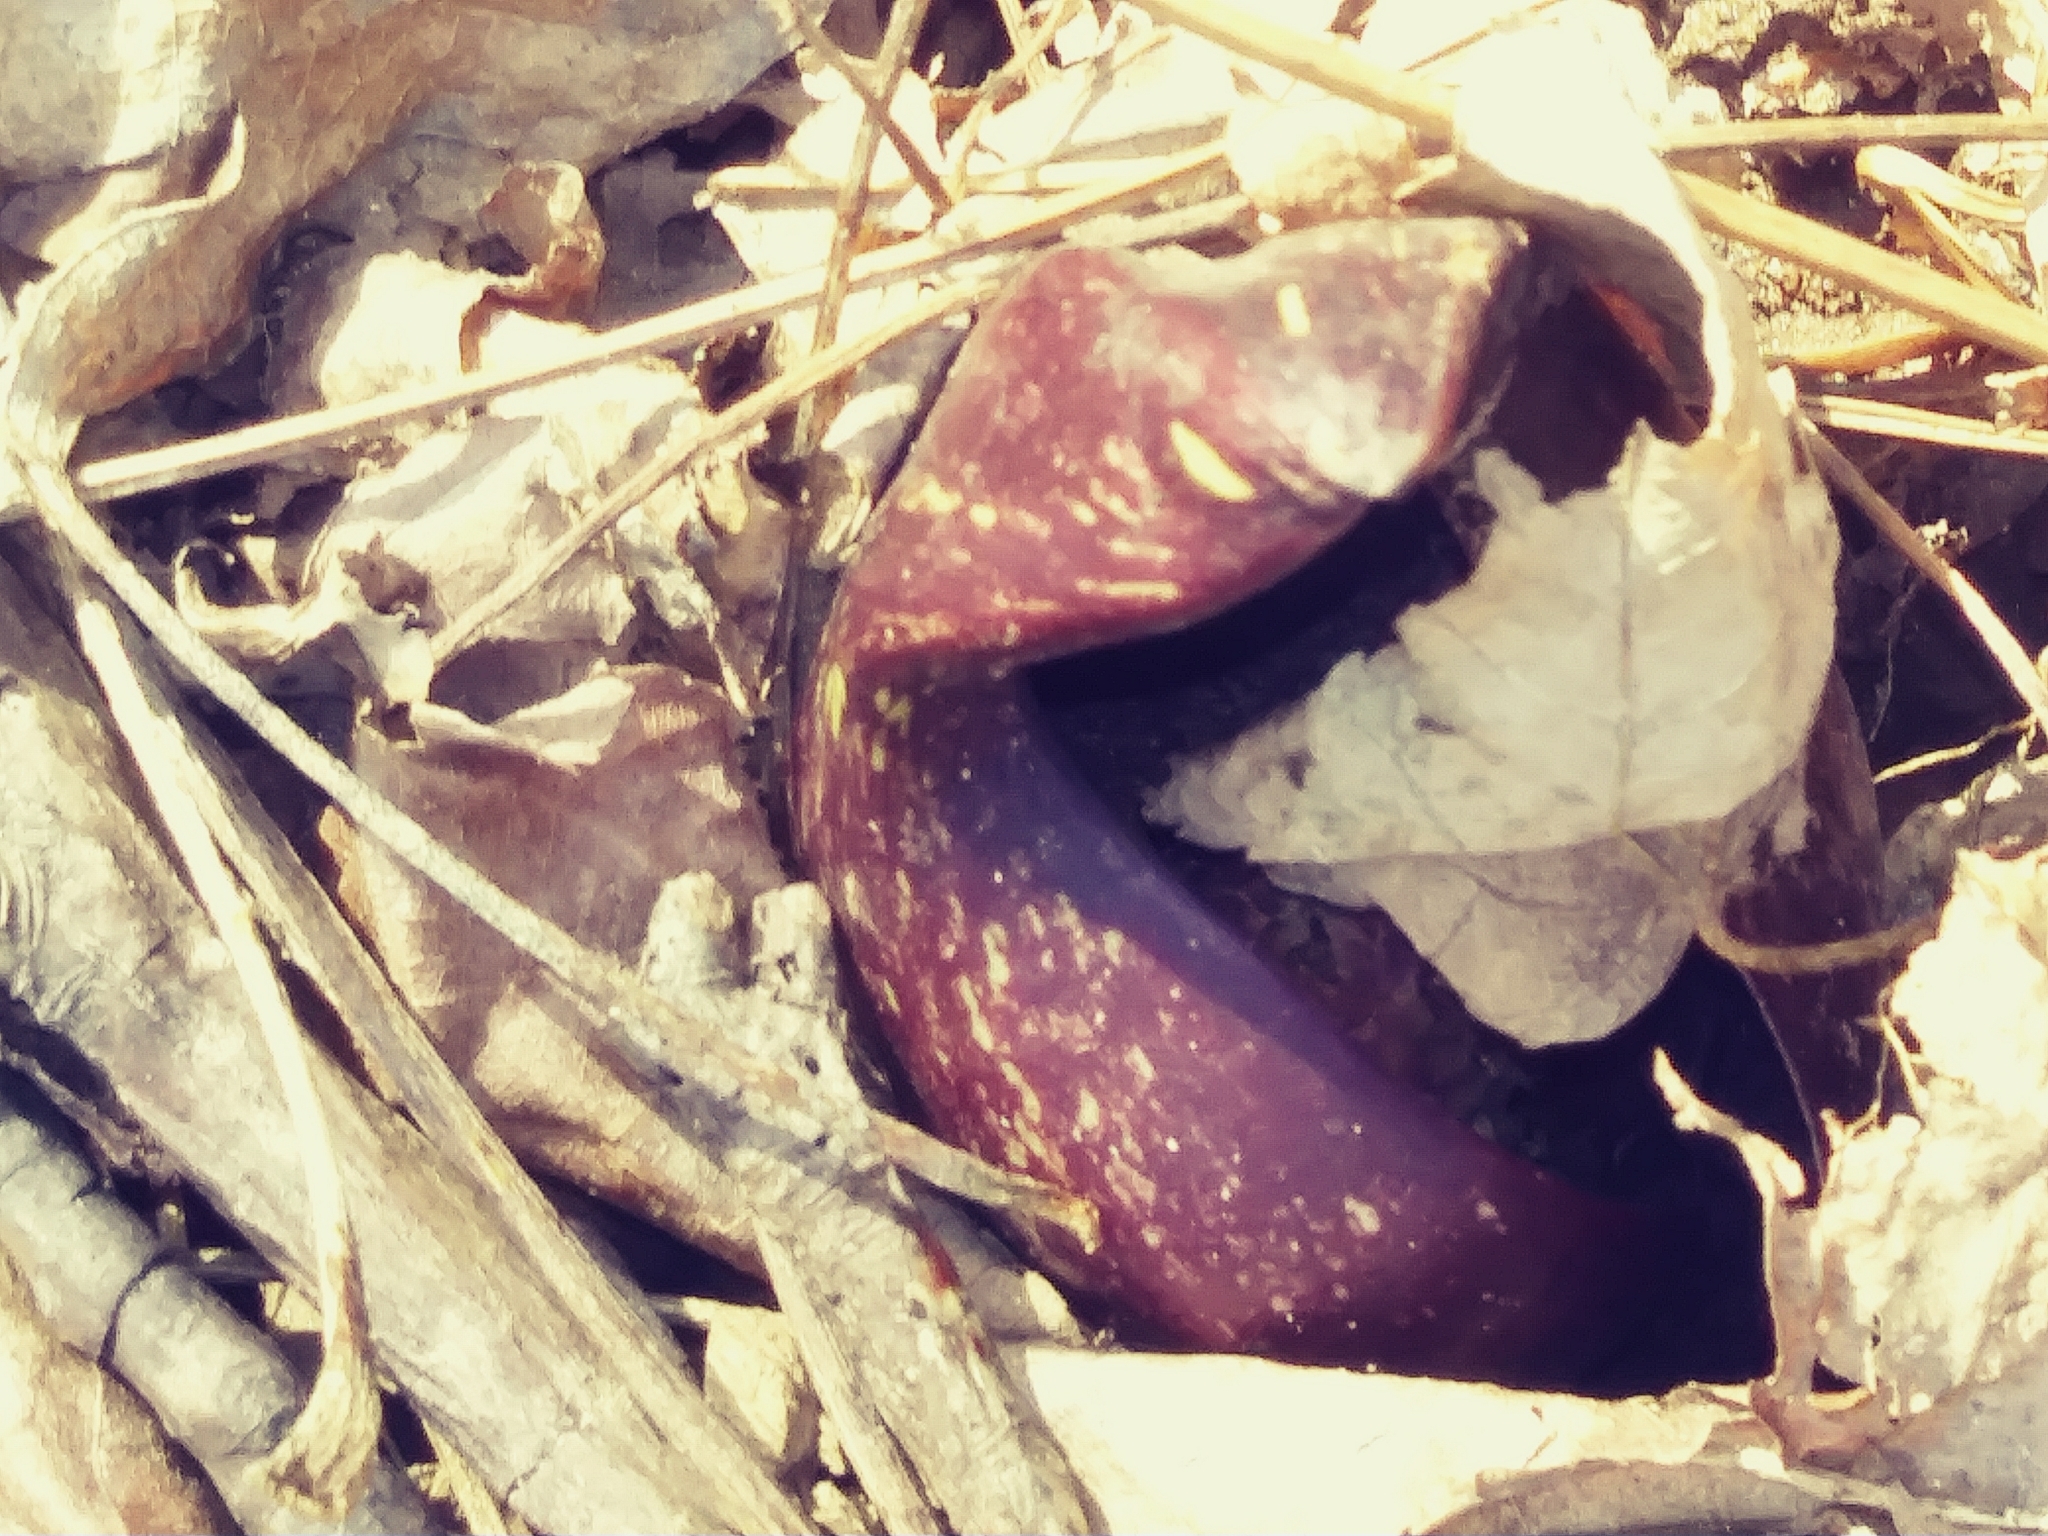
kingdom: Plantae
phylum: Tracheophyta
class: Liliopsida
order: Alismatales
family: Araceae
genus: Symplocarpus
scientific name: Symplocarpus foetidus
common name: Eastern skunk cabbage
